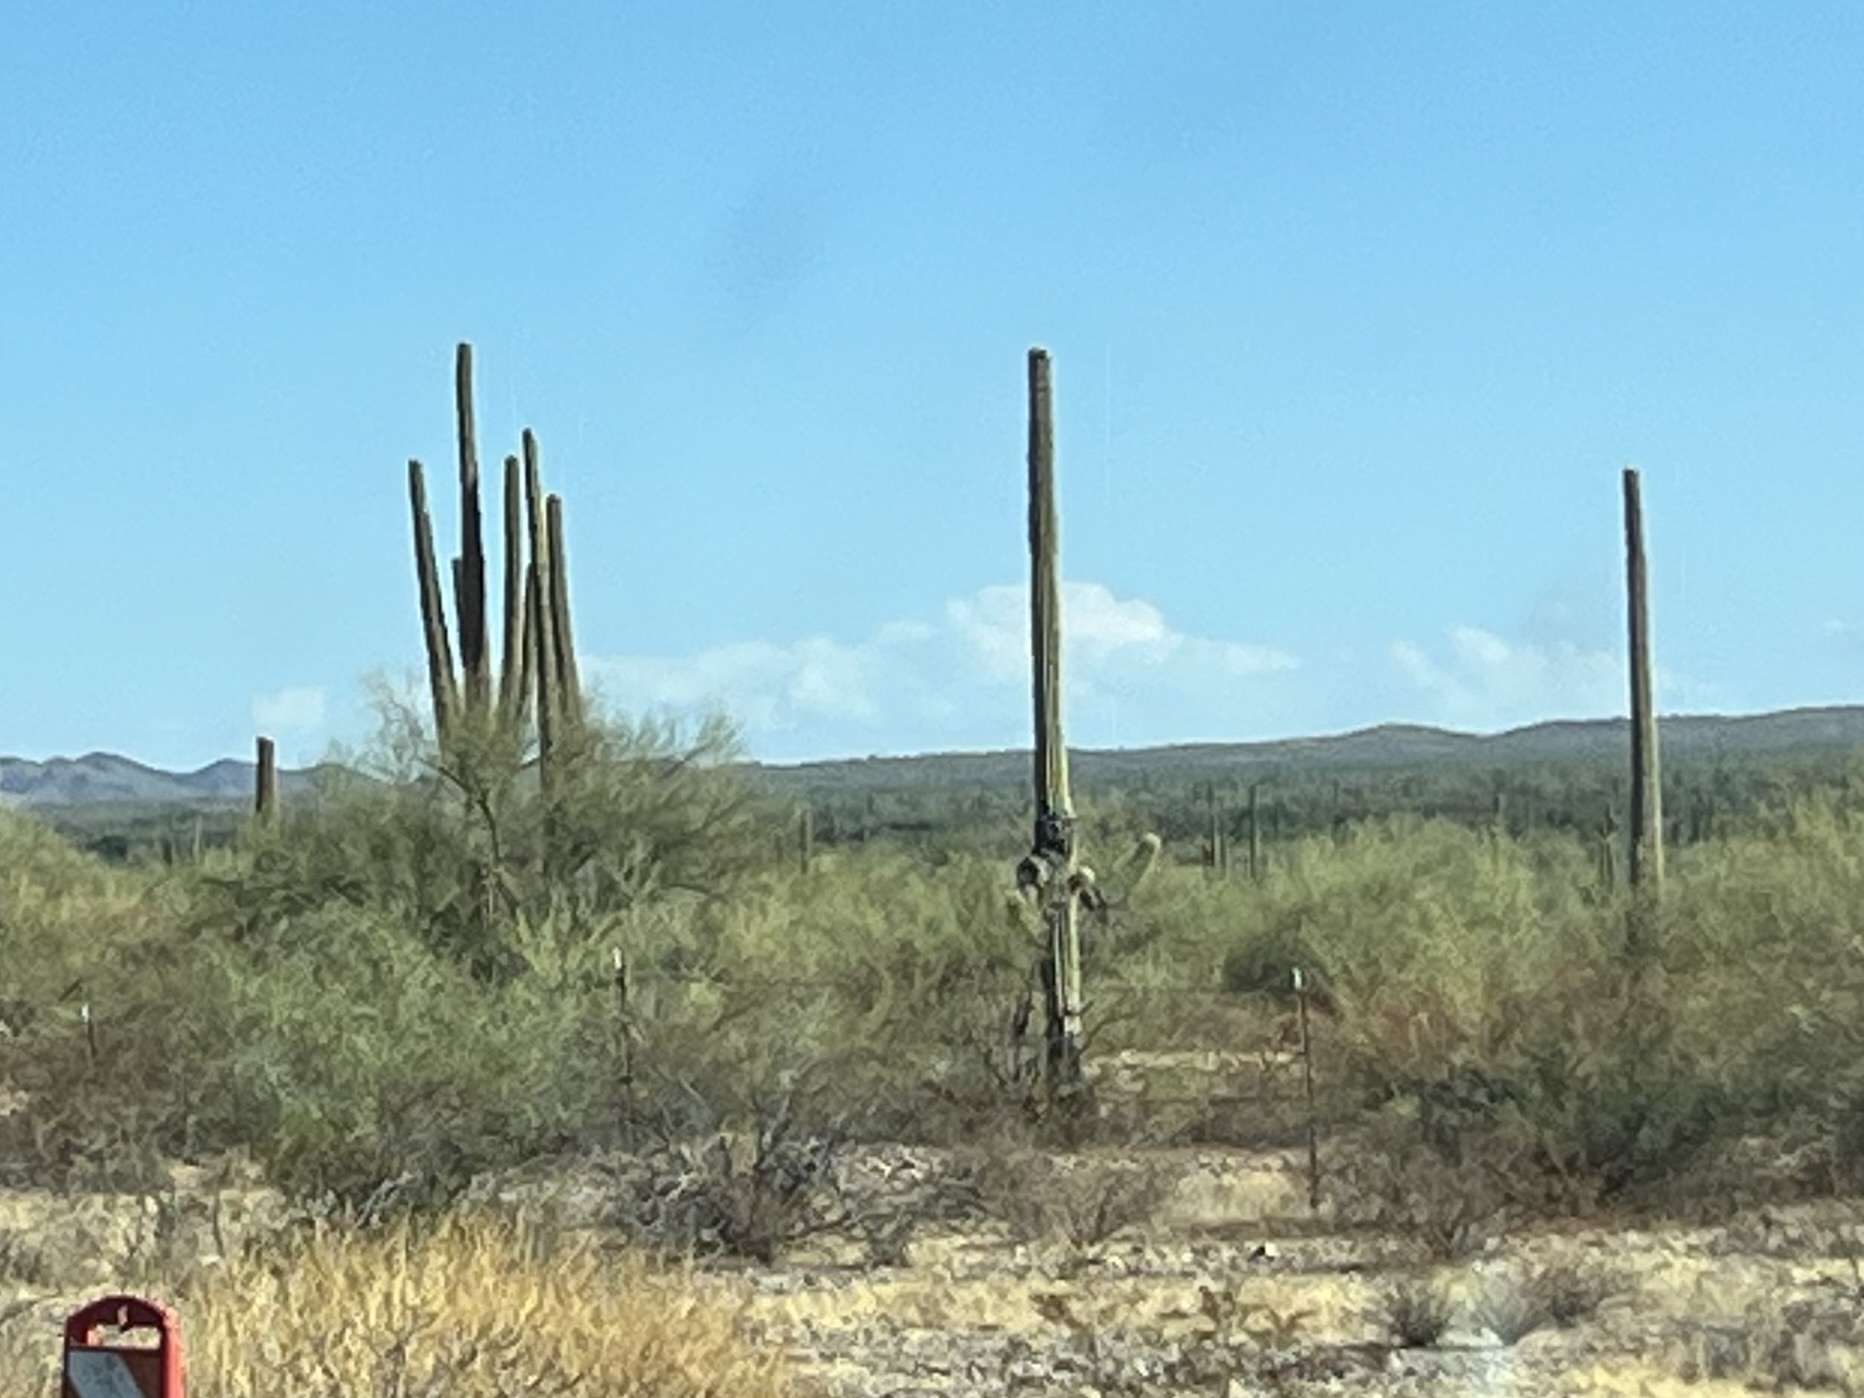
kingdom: Plantae
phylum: Tracheophyta
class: Magnoliopsida
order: Caryophyllales
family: Cactaceae
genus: Carnegiea
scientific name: Carnegiea gigantea
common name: Saguaro
